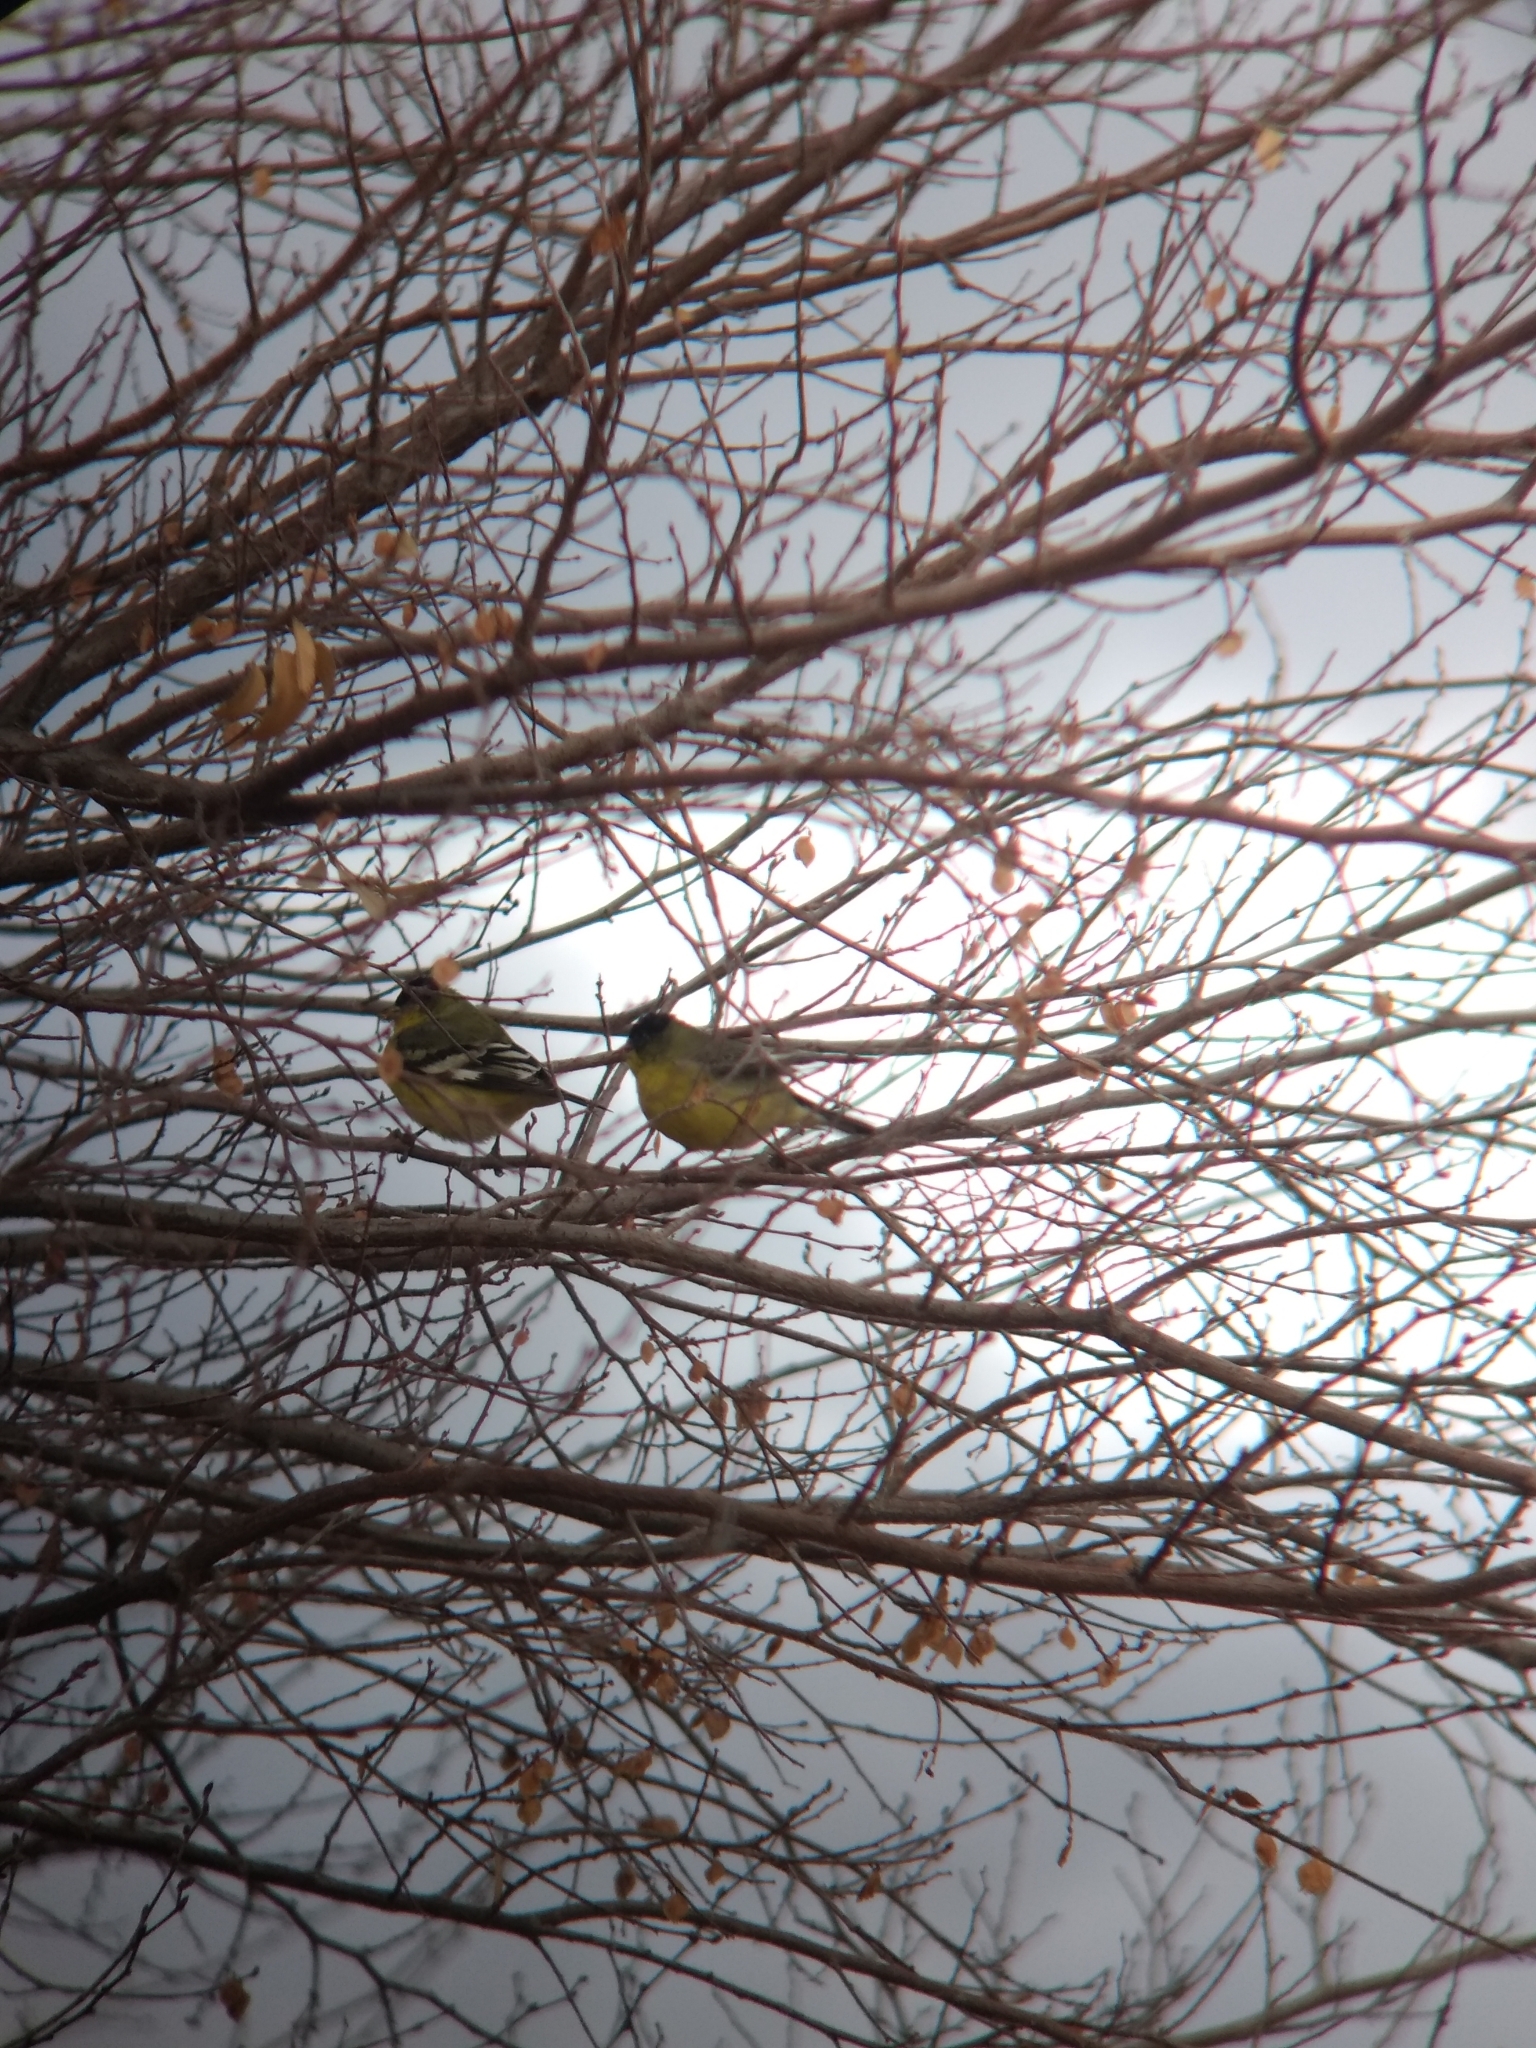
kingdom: Animalia
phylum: Chordata
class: Aves
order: Passeriformes
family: Fringillidae
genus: Spinus
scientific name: Spinus psaltria
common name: Lesser goldfinch
